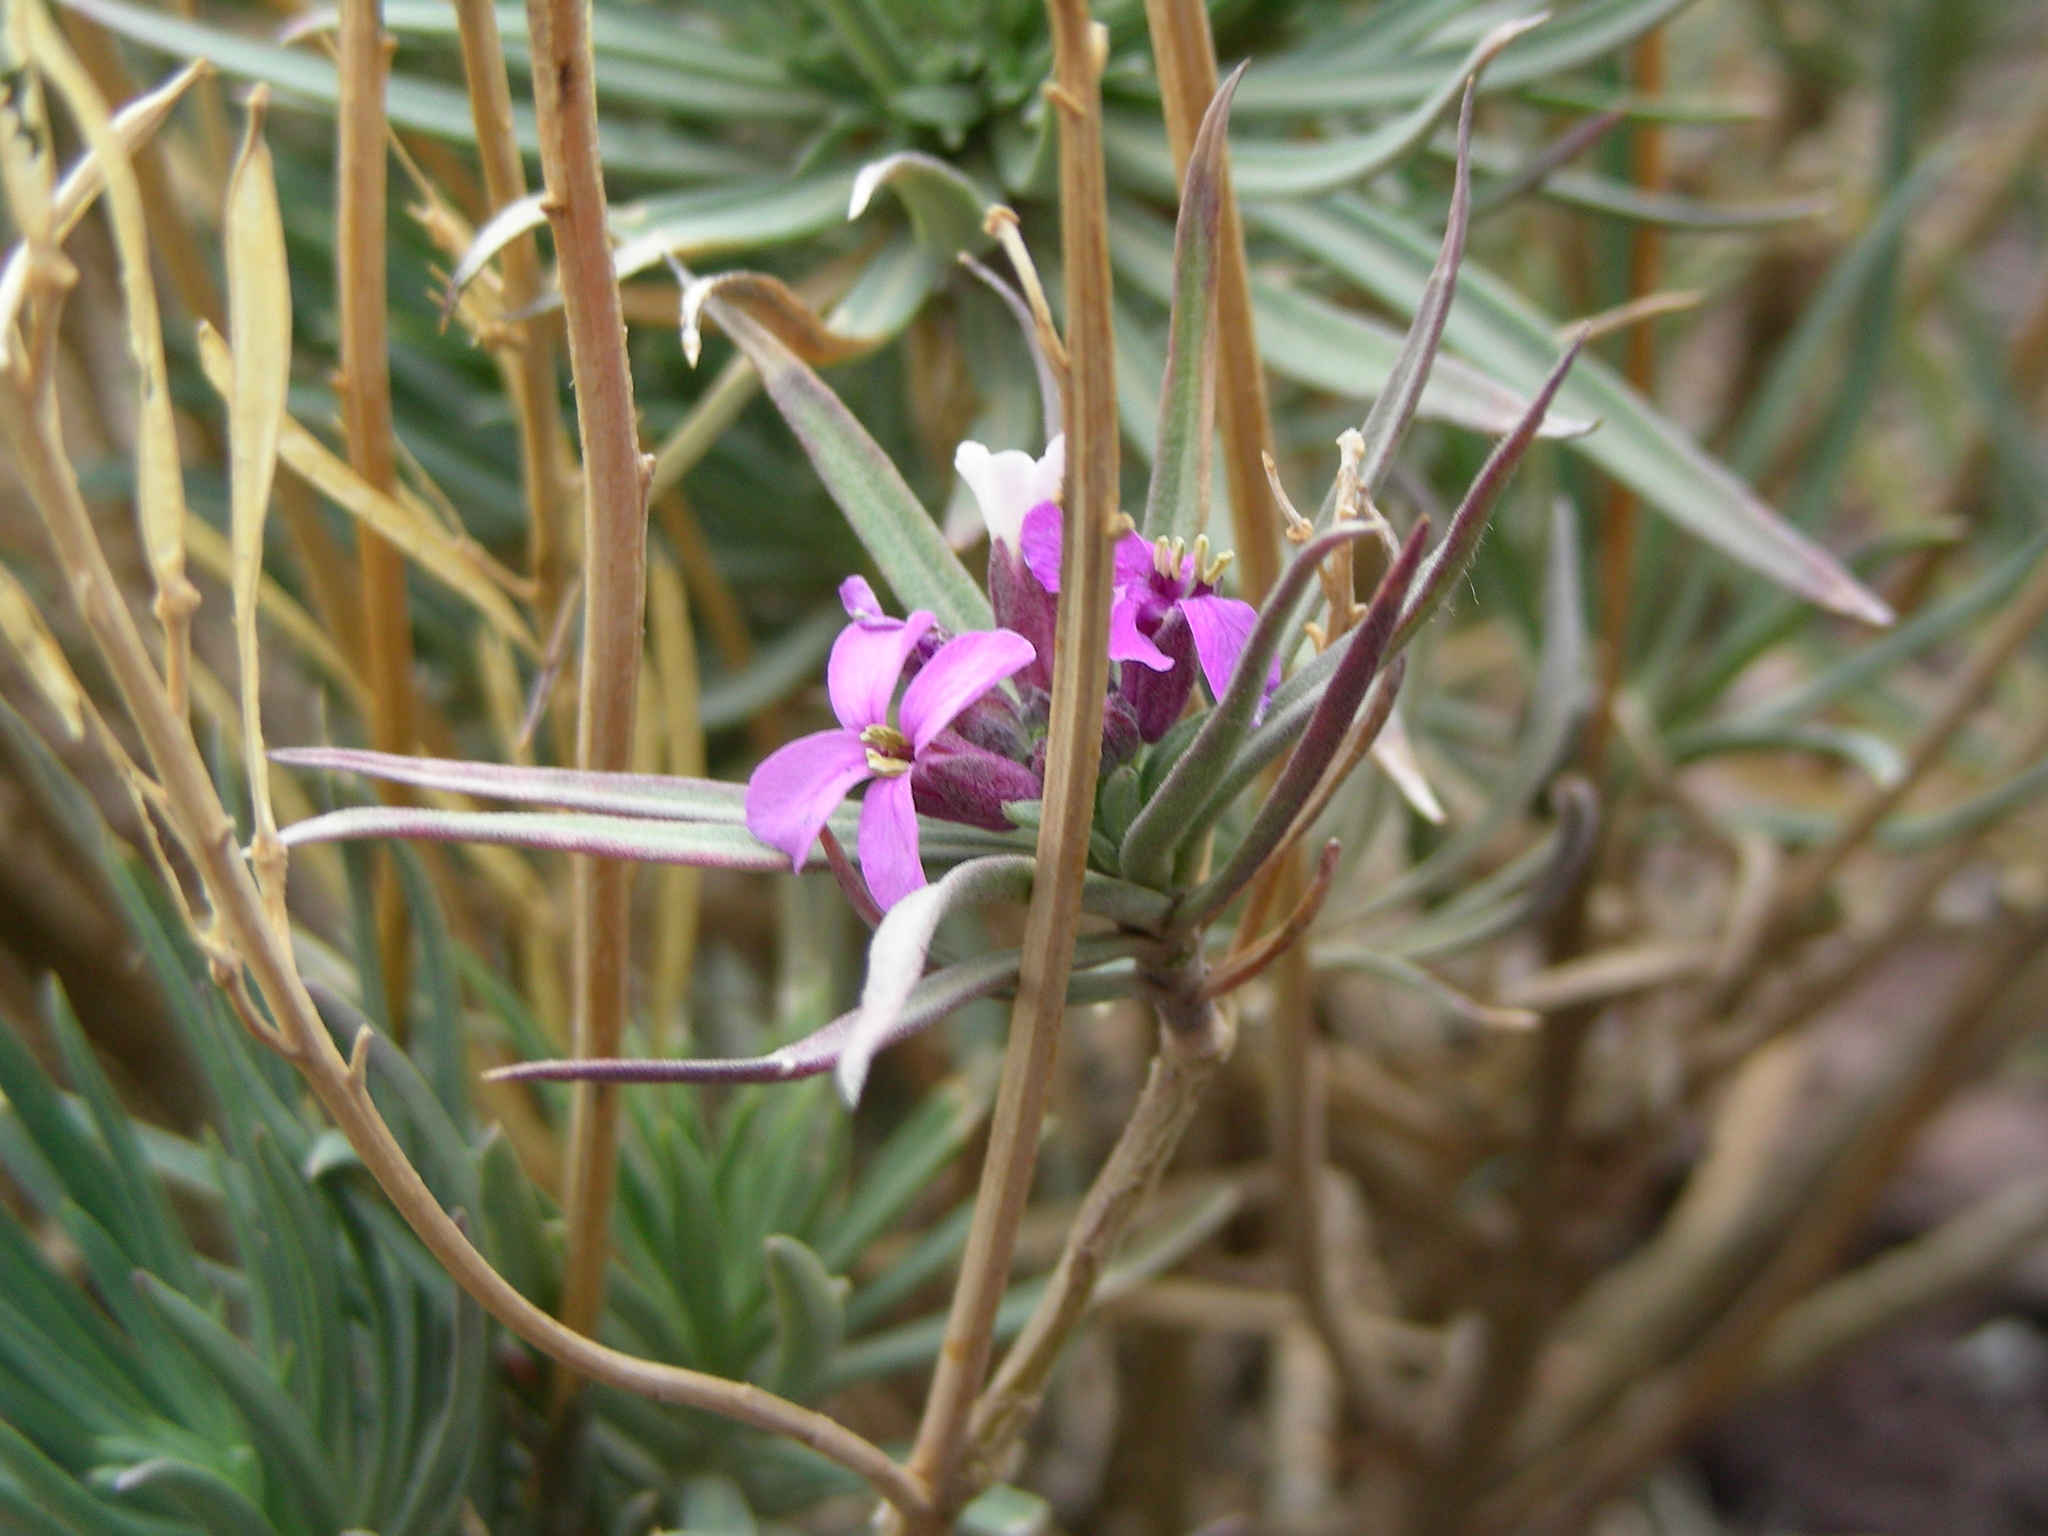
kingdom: Plantae
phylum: Tracheophyta
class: Magnoliopsida
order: Brassicales
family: Brassicaceae
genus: Erysimum
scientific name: Erysimum scoparium
